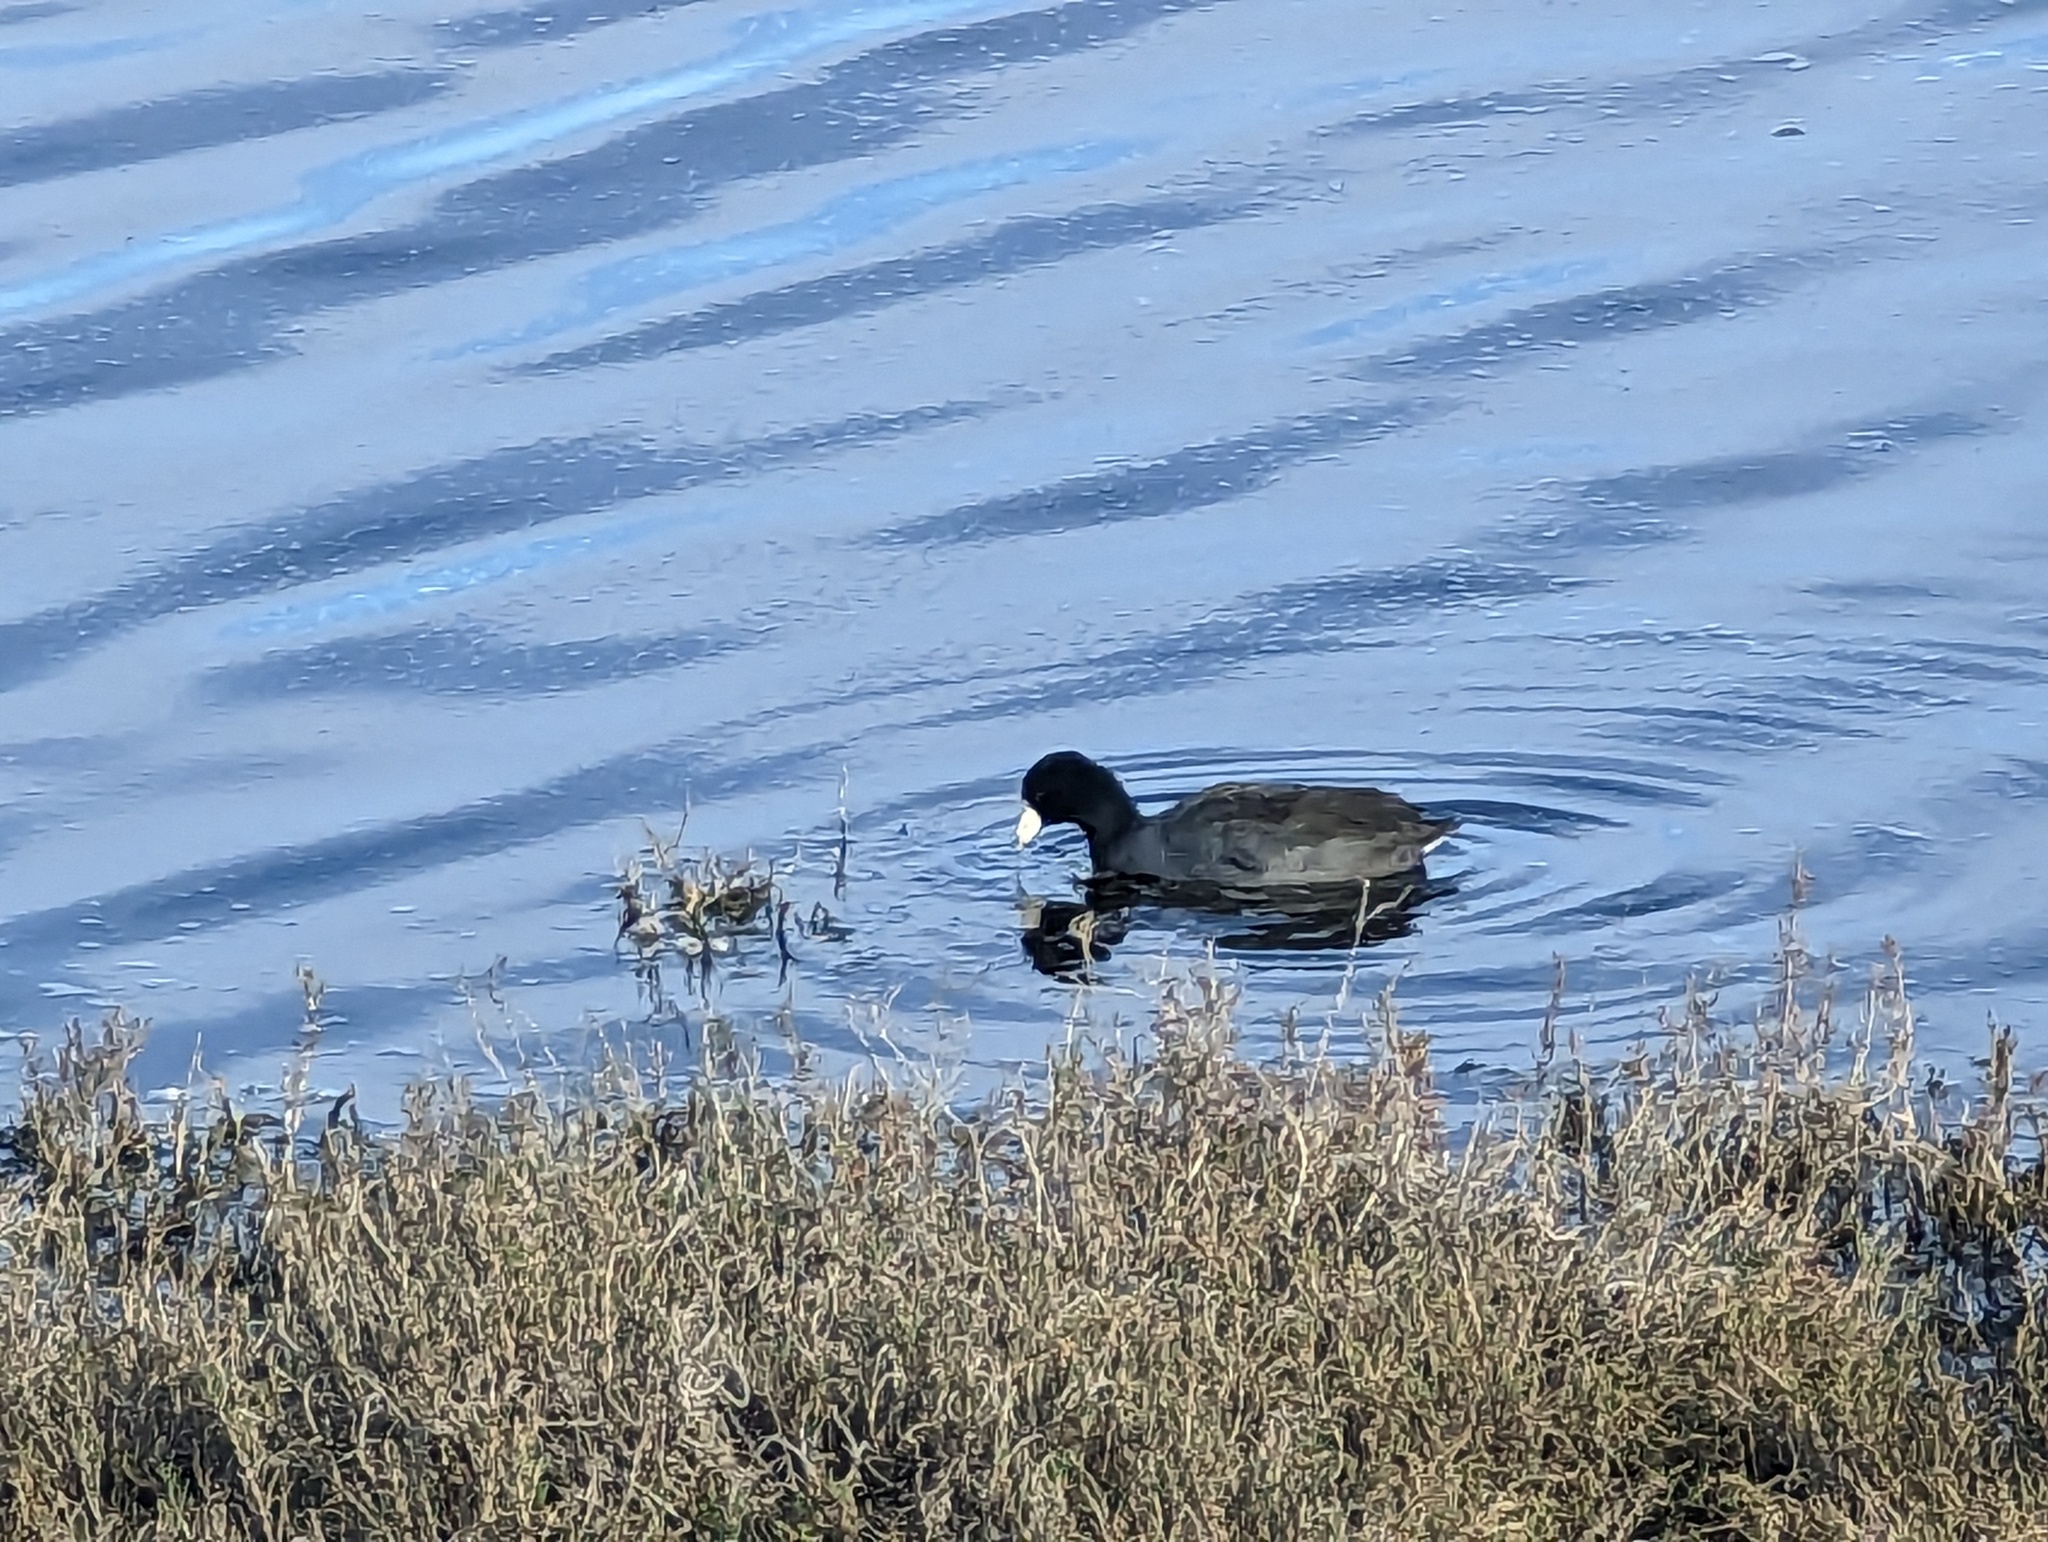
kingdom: Animalia
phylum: Chordata
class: Aves
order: Gruiformes
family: Rallidae
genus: Fulica
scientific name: Fulica americana
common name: American coot
